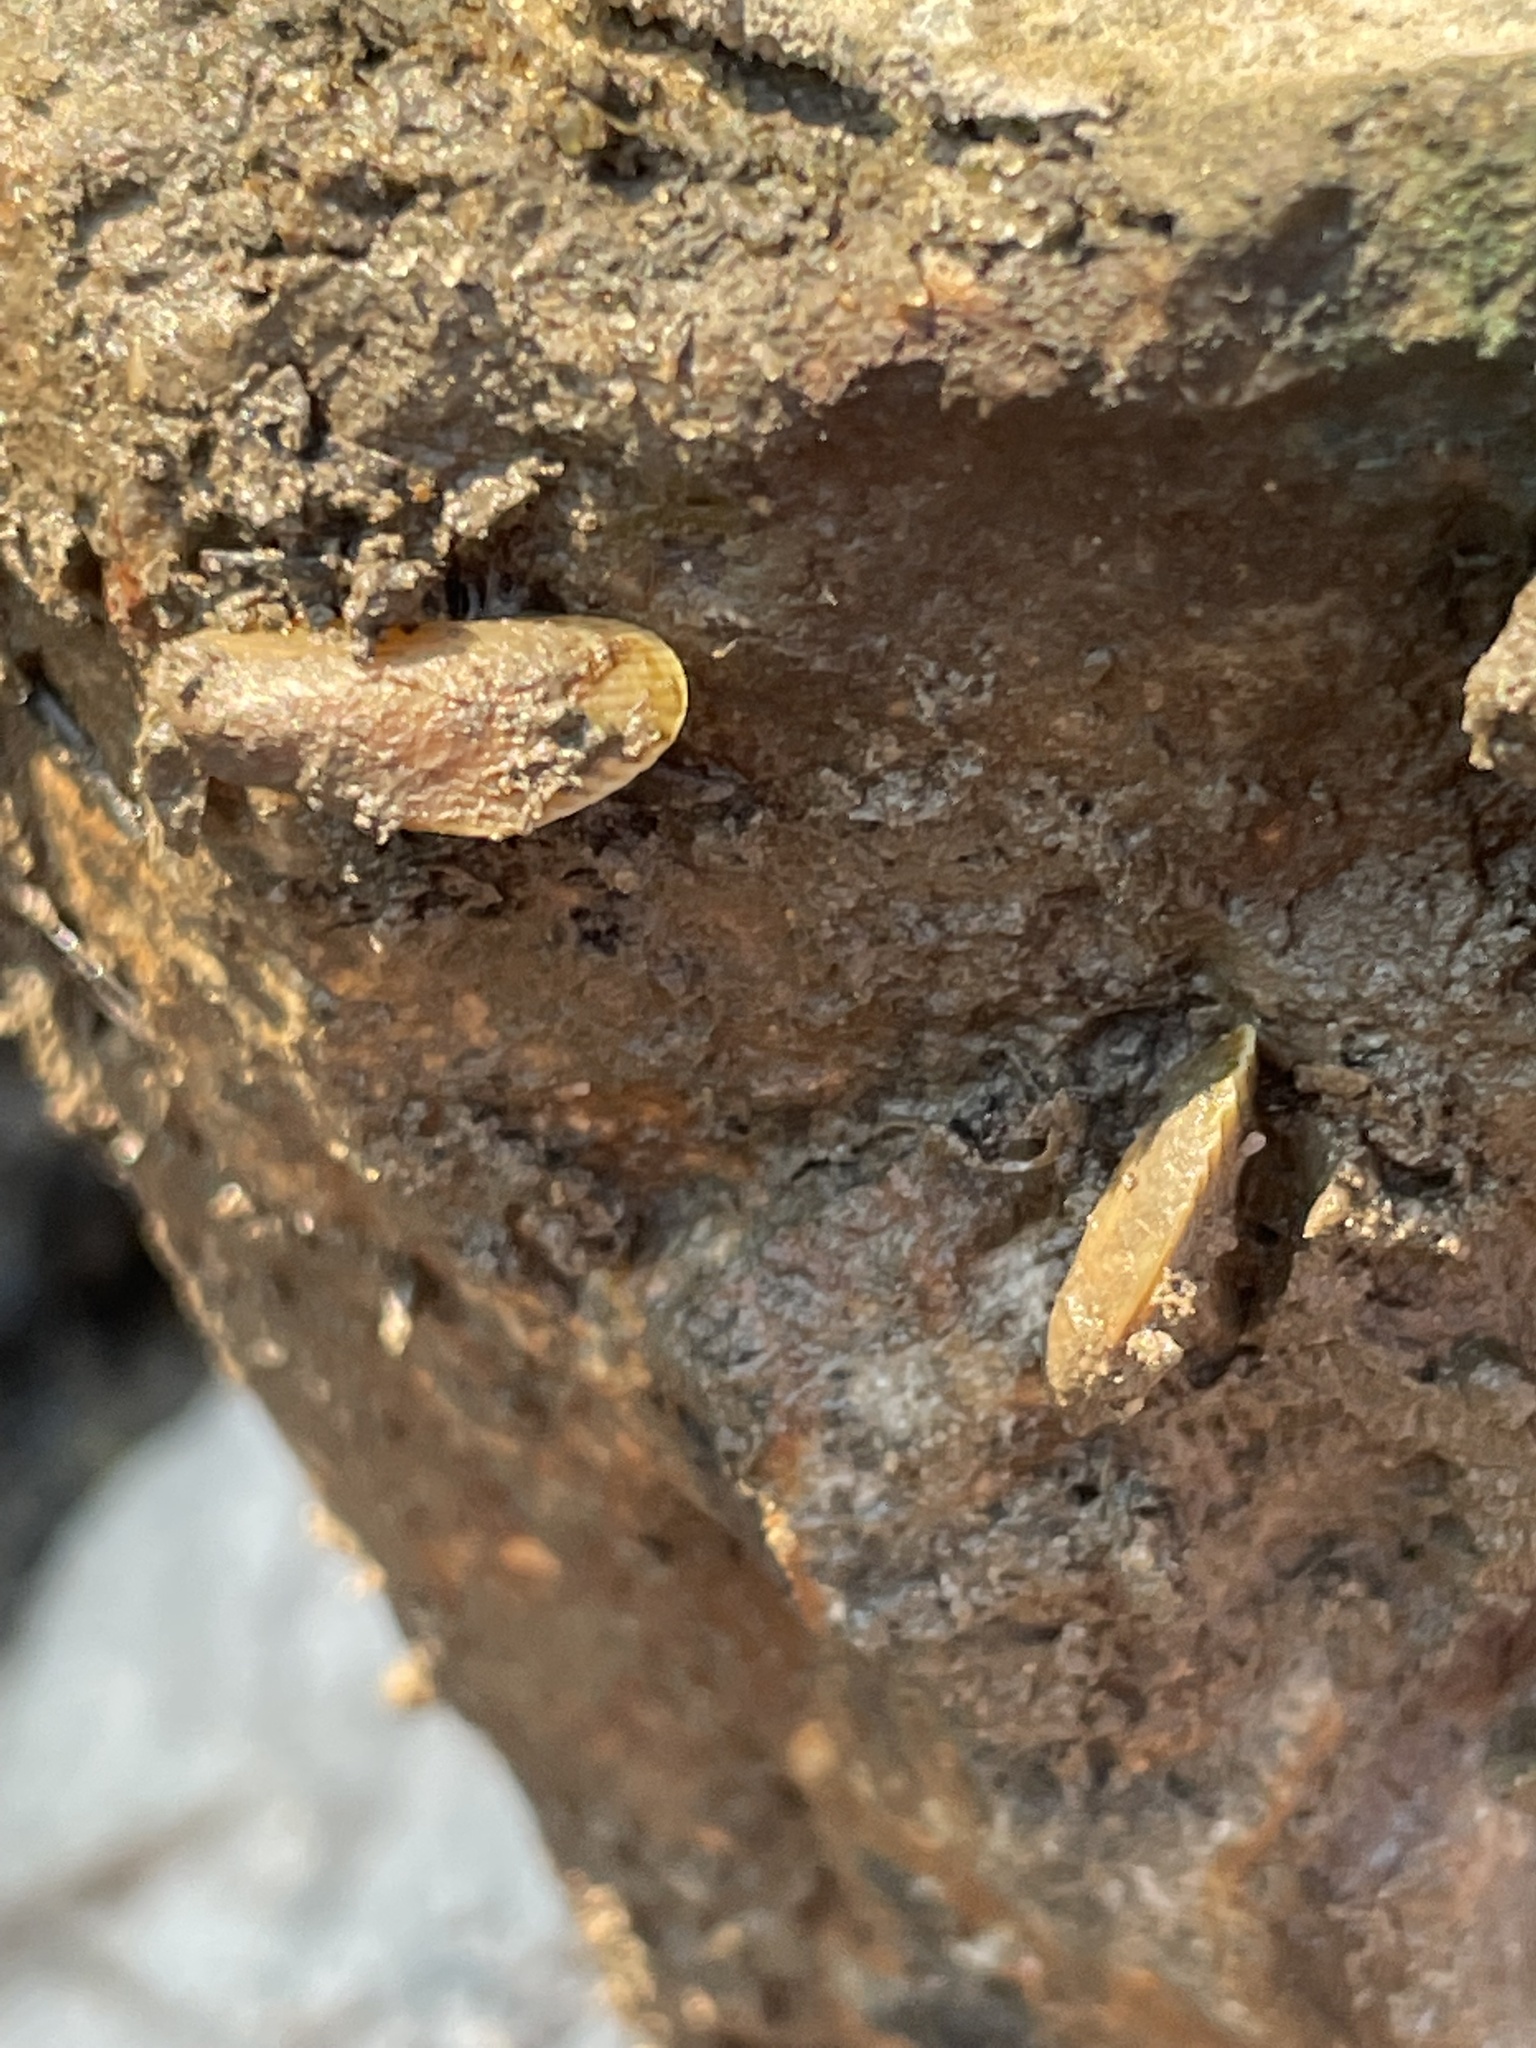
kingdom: Animalia
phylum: Mollusca
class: Bivalvia
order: Mytilida
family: Mytilidae
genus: Geukensia
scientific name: Geukensia demissa
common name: Ribbed mussel
